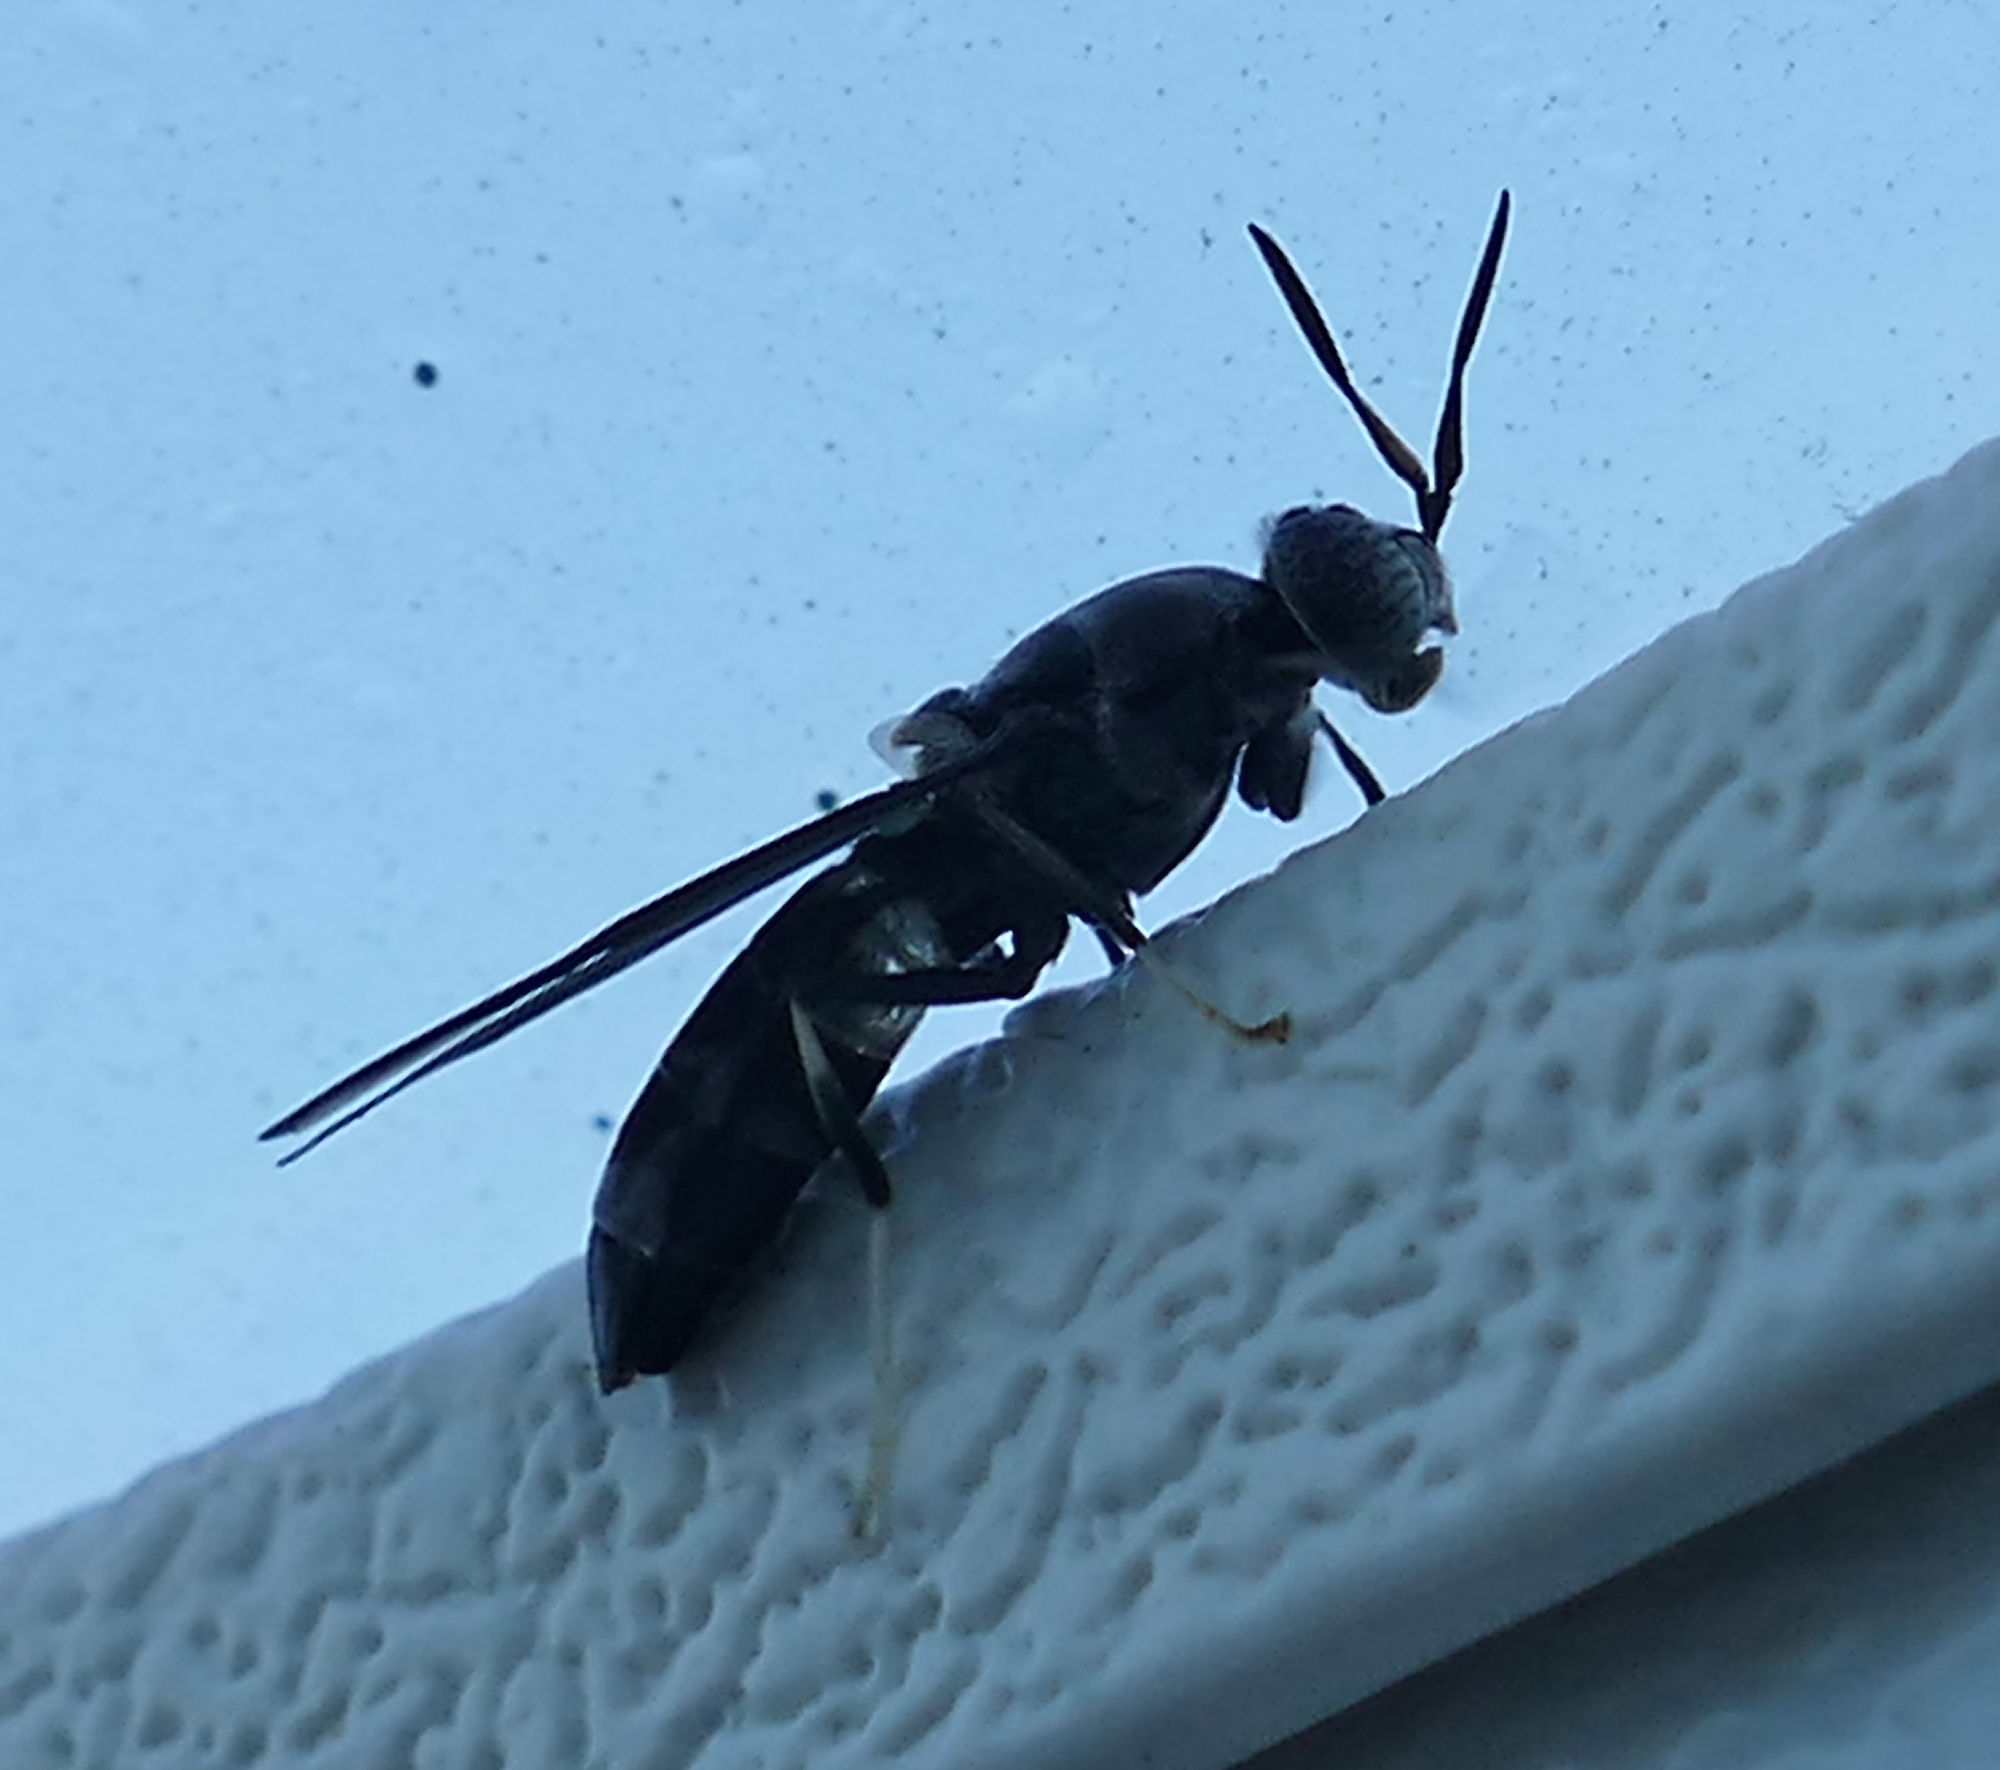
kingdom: Animalia
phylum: Arthropoda
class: Insecta
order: Diptera
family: Stratiomyidae
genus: Hermetia
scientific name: Hermetia illucens
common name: Black soldier fly
